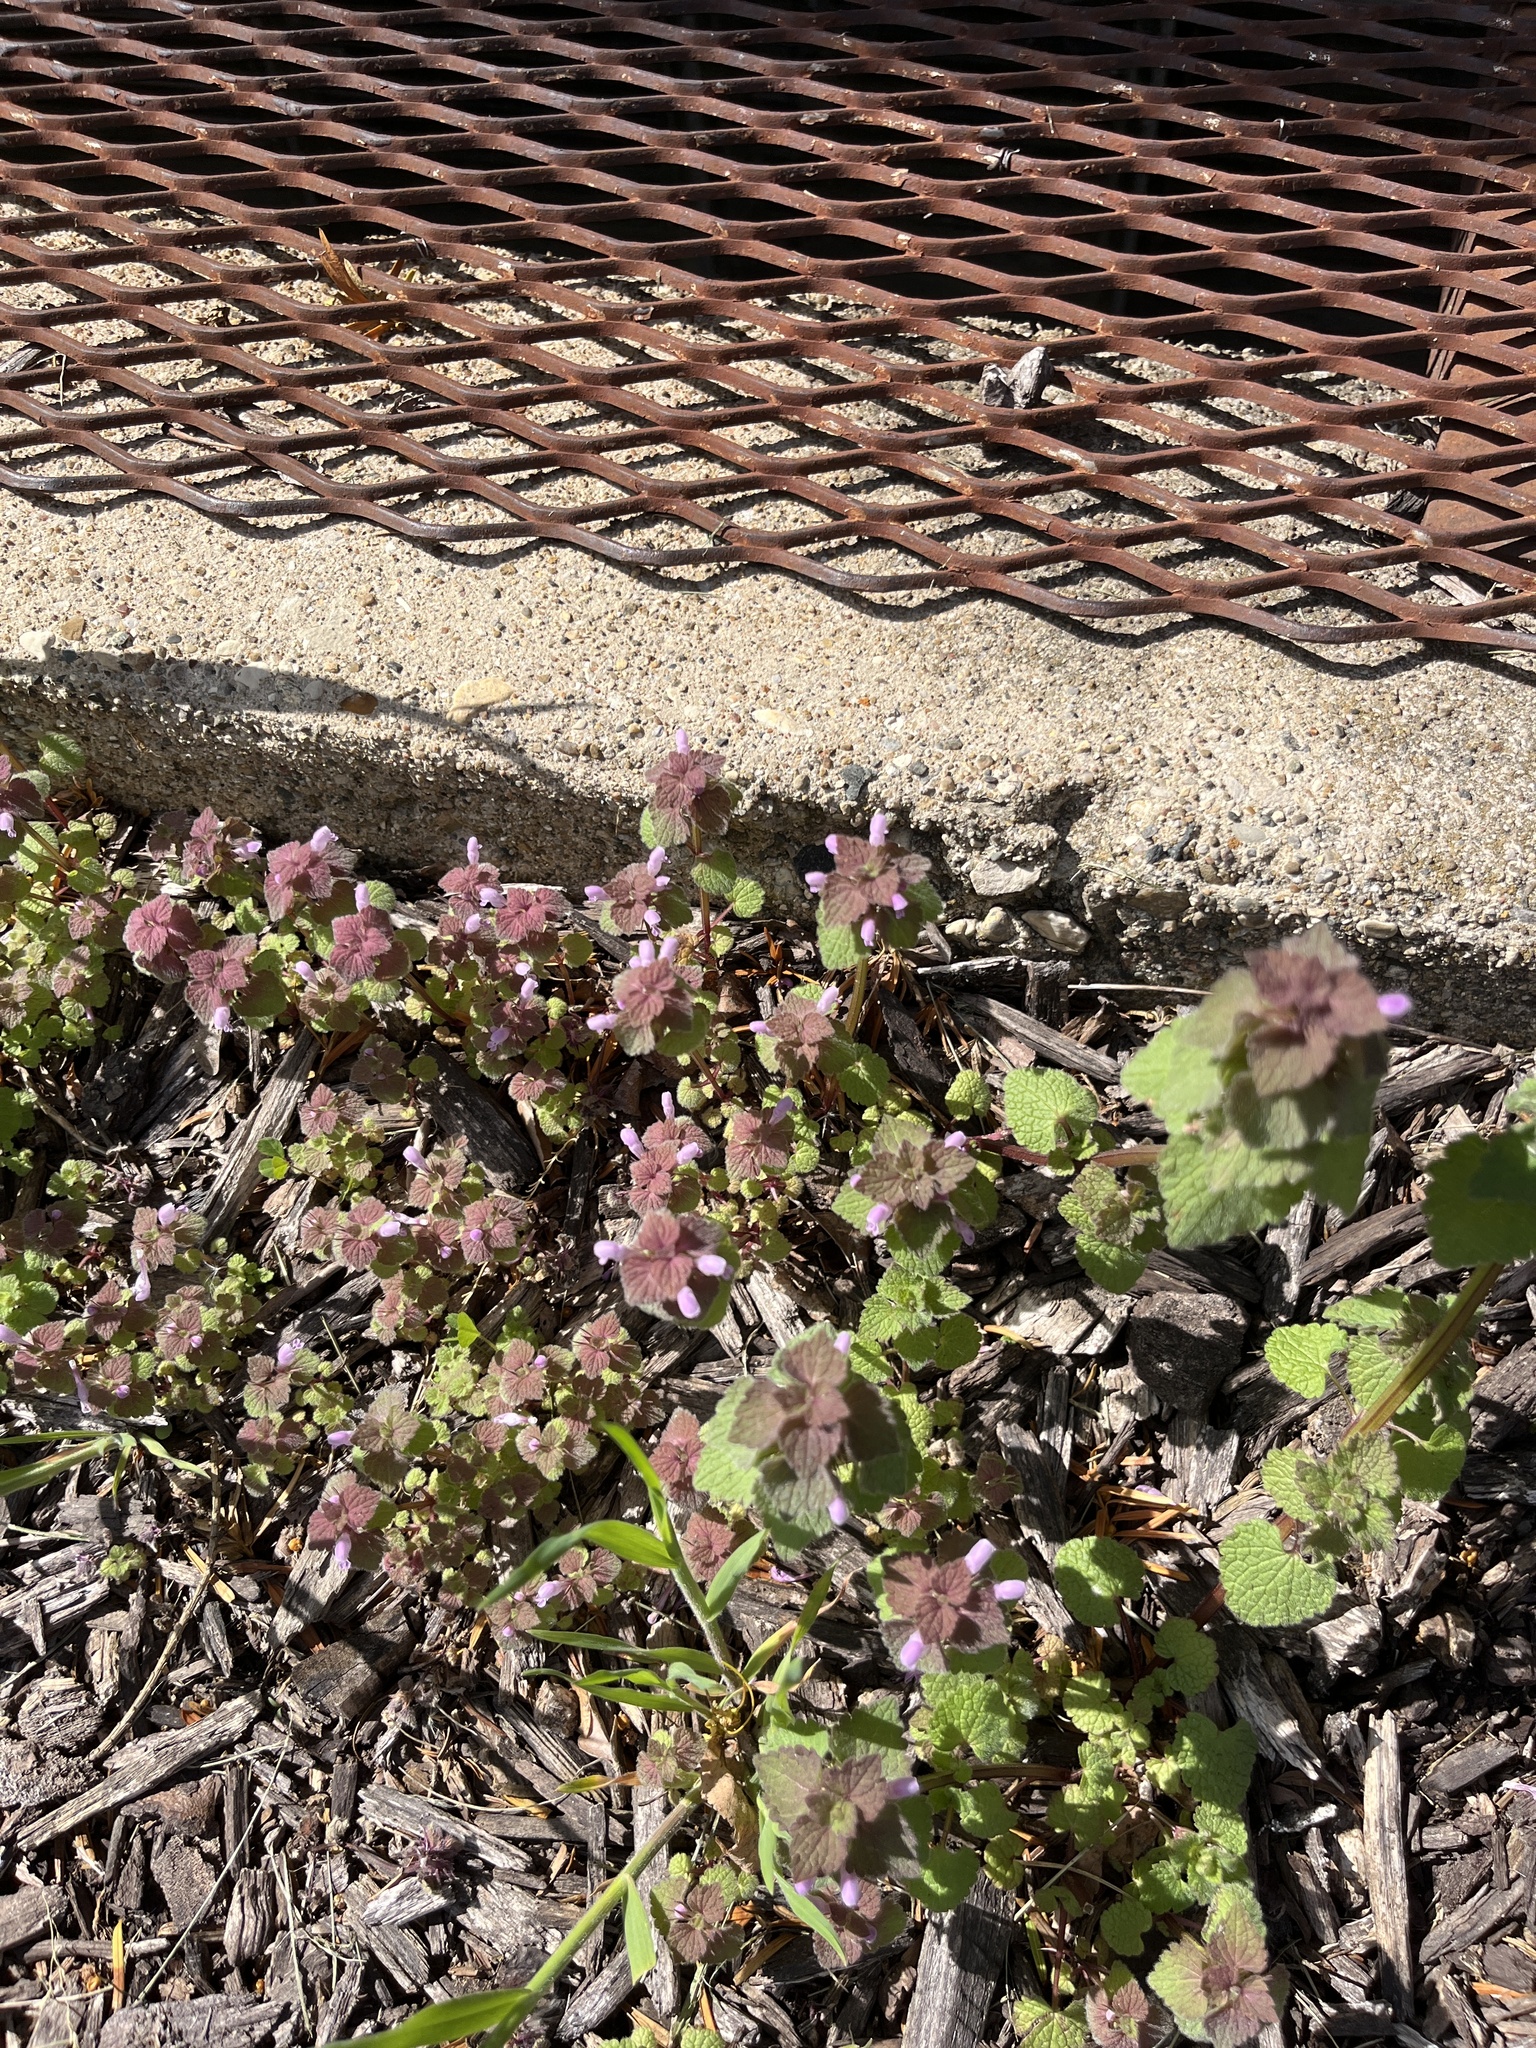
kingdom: Plantae
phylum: Tracheophyta
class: Magnoliopsida
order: Lamiales
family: Lamiaceae
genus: Lamium
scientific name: Lamium purpureum
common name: Red dead-nettle
